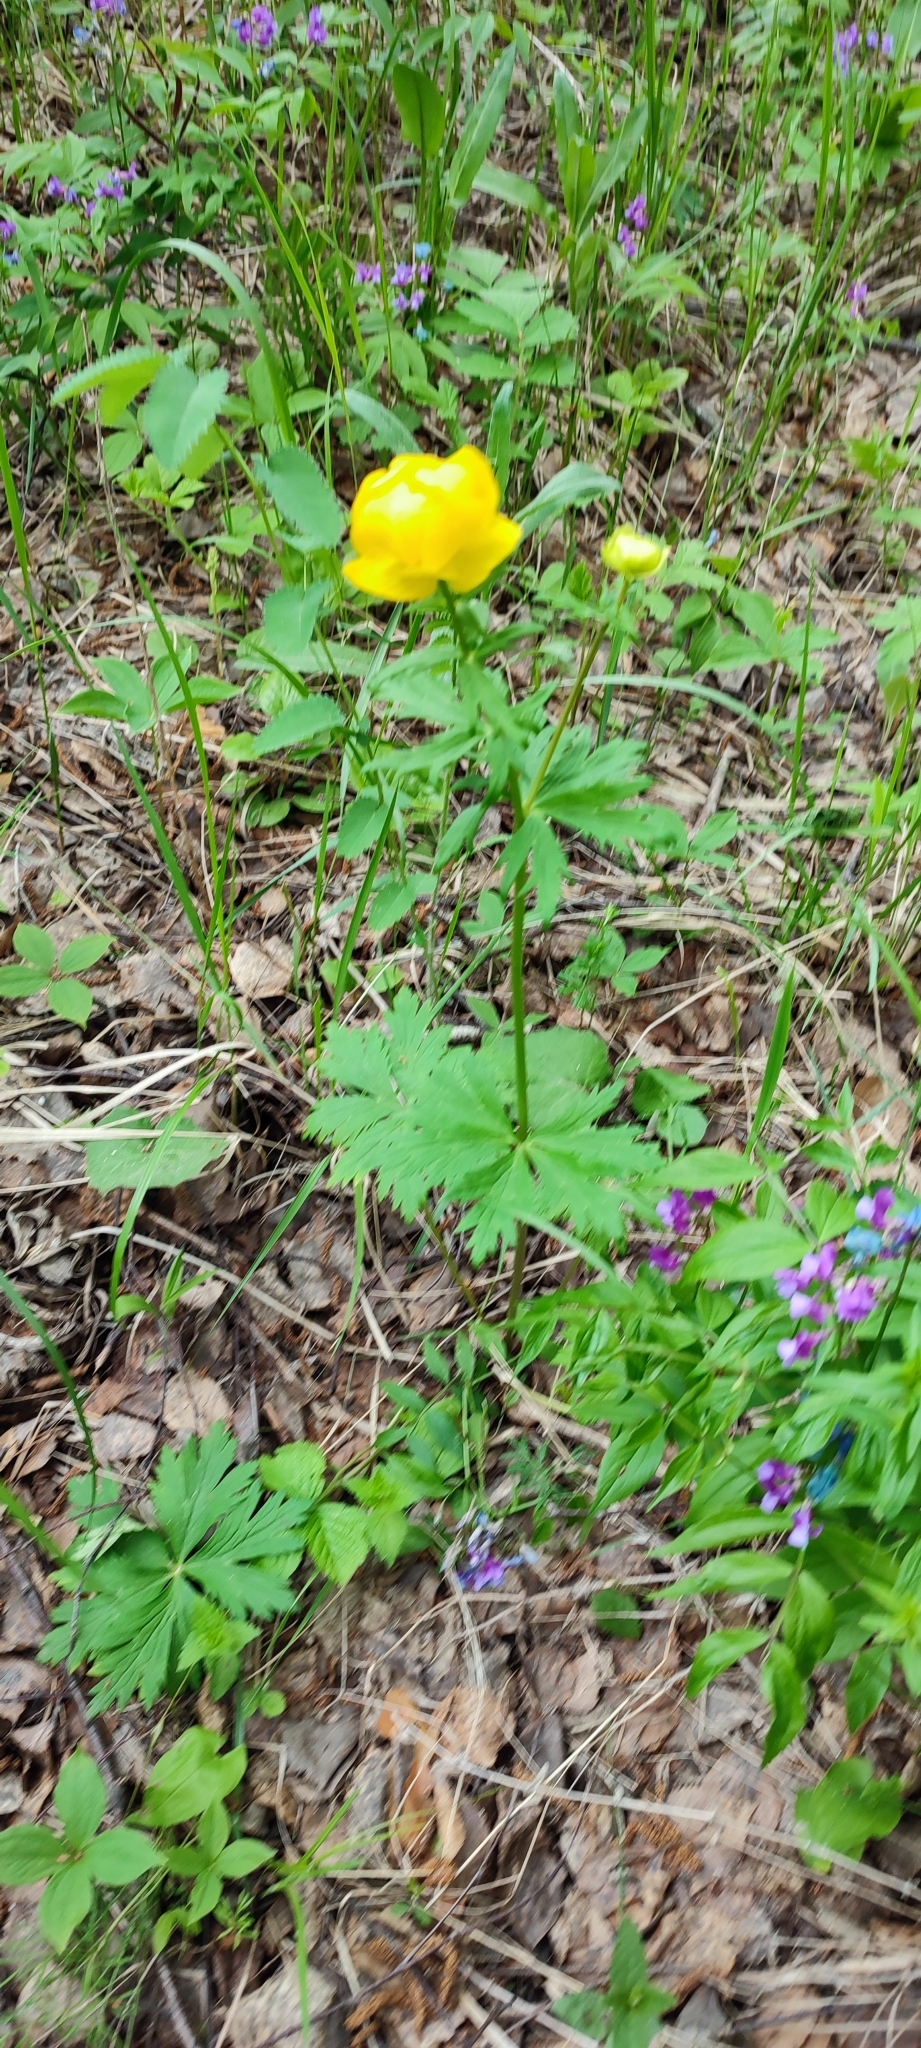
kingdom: Plantae
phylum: Tracheophyta
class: Magnoliopsida
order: Ranunculales
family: Ranunculaceae
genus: Trollius
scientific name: Trollius europaeus
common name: European globeflower
